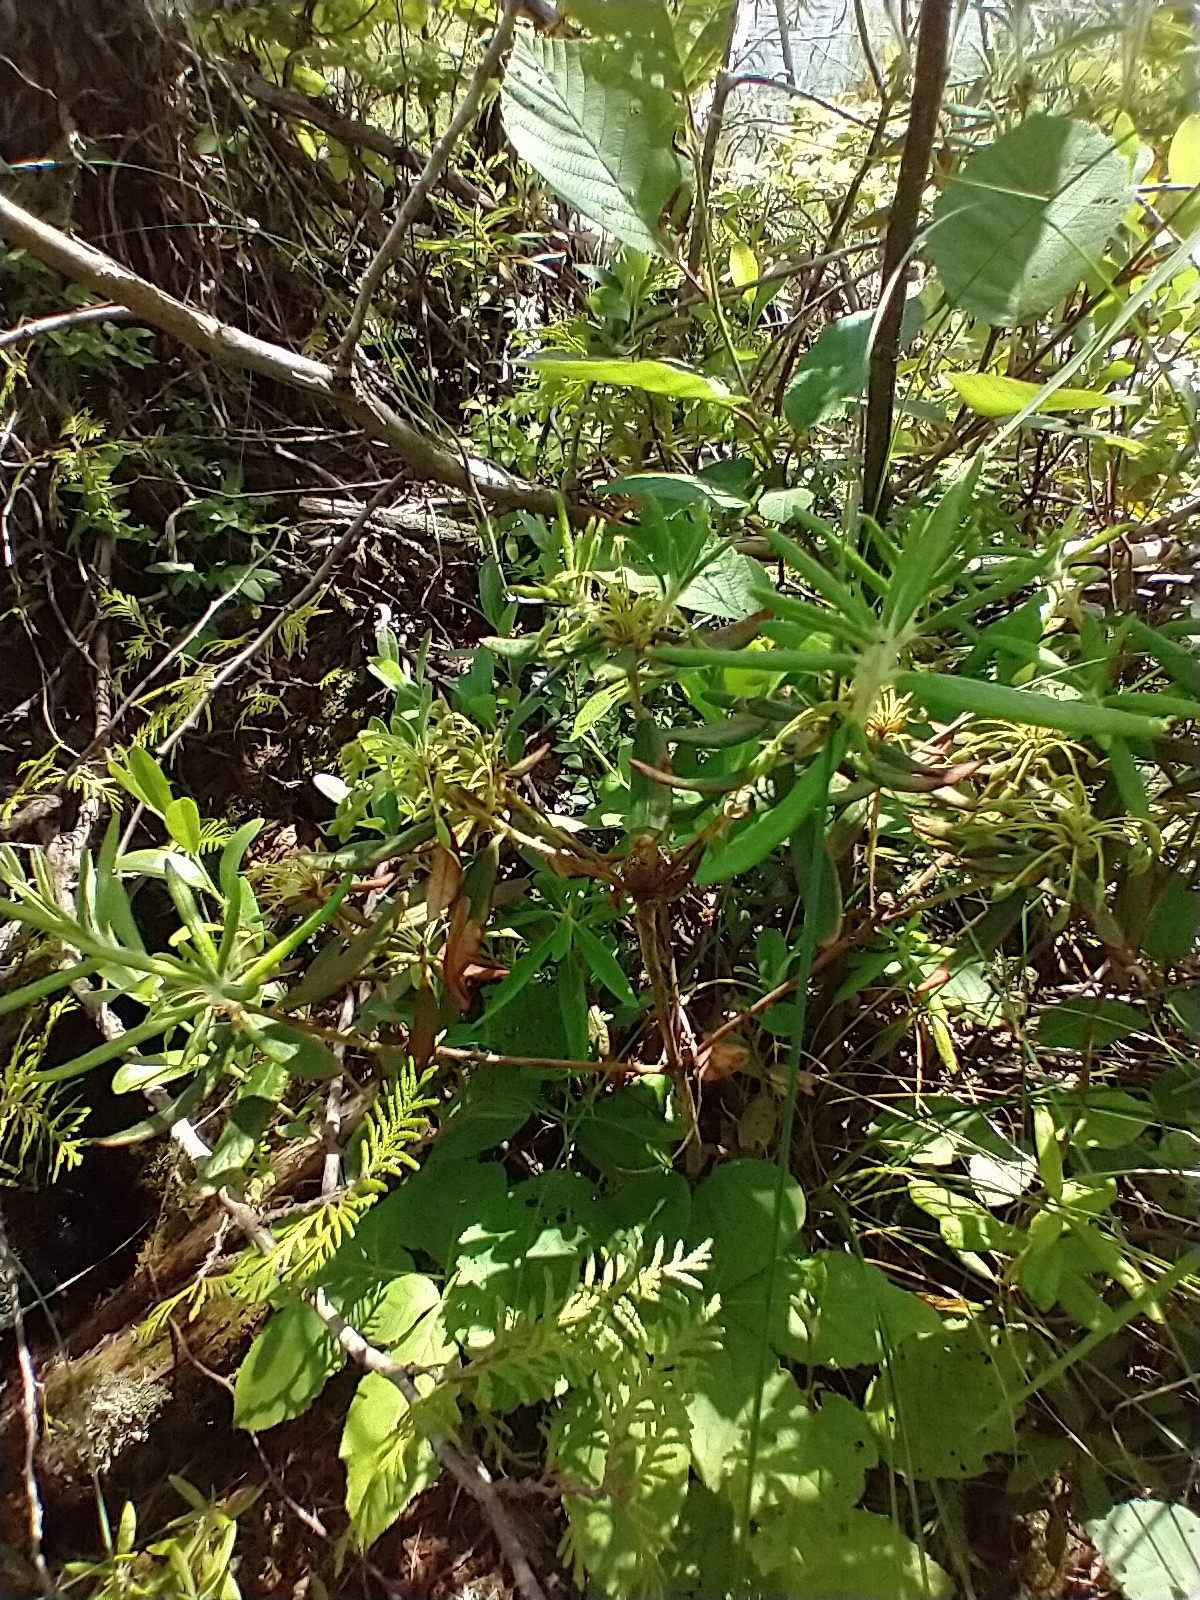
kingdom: Plantae
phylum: Tracheophyta
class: Magnoliopsida
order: Ericales
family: Ericaceae
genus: Rhododendron
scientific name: Rhododendron groenlandicum
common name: Bog labrador tea
